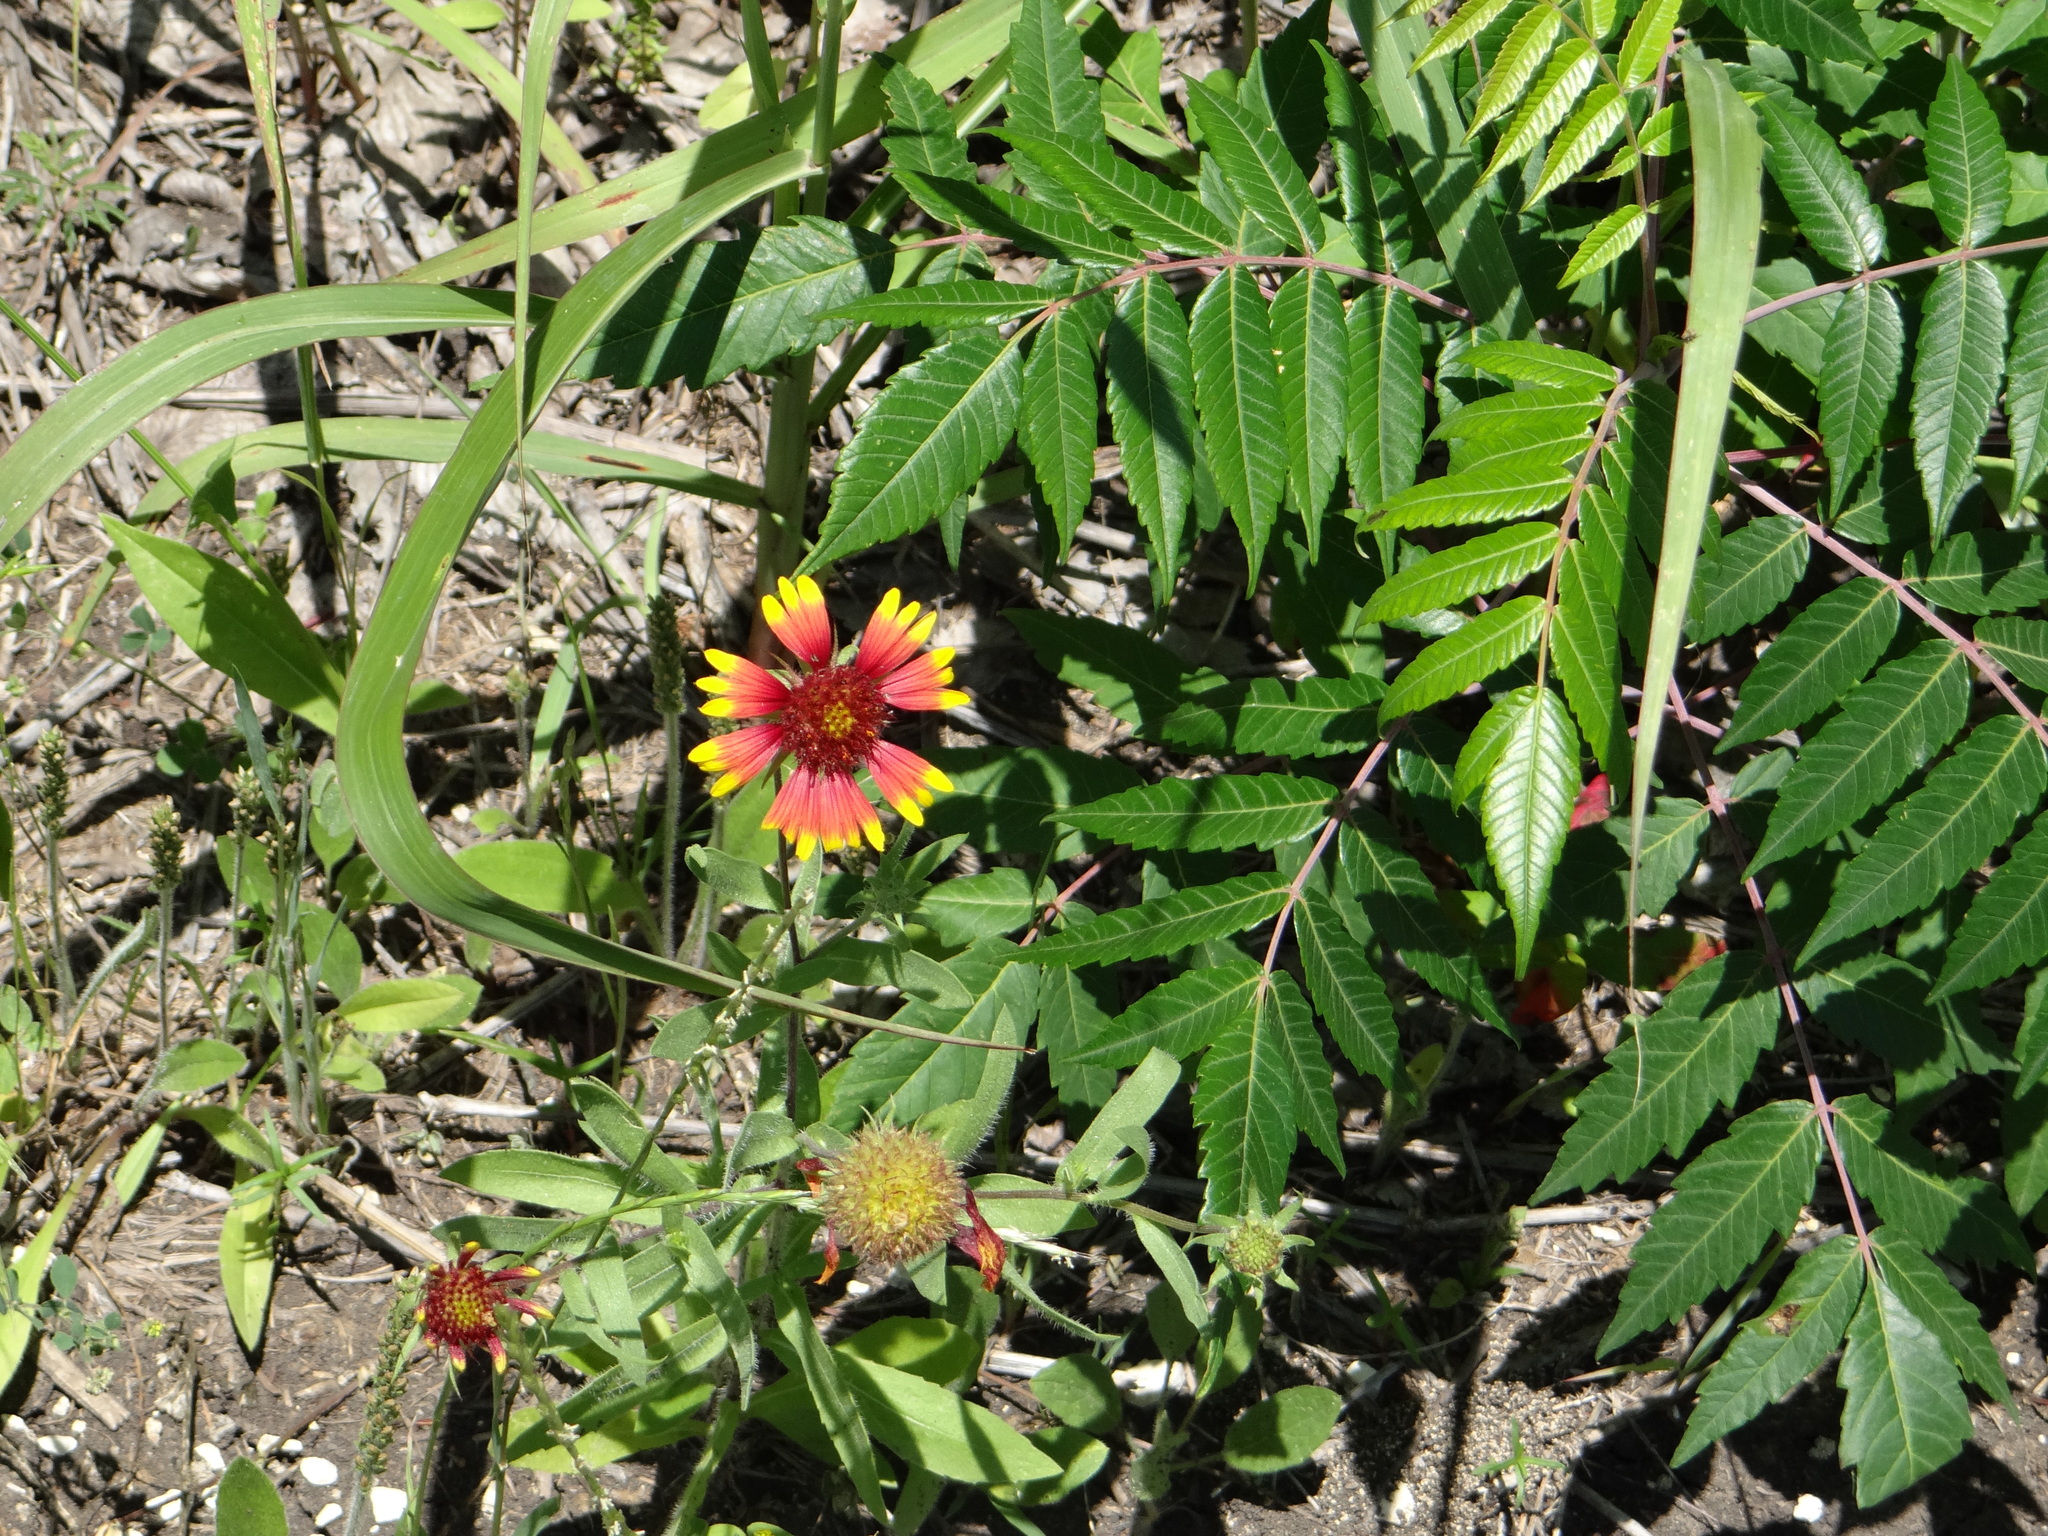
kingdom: Plantae
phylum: Tracheophyta
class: Magnoliopsida
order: Asterales
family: Asteraceae
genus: Gaillardia
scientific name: Gaillardia pulchella
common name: Firewheel
